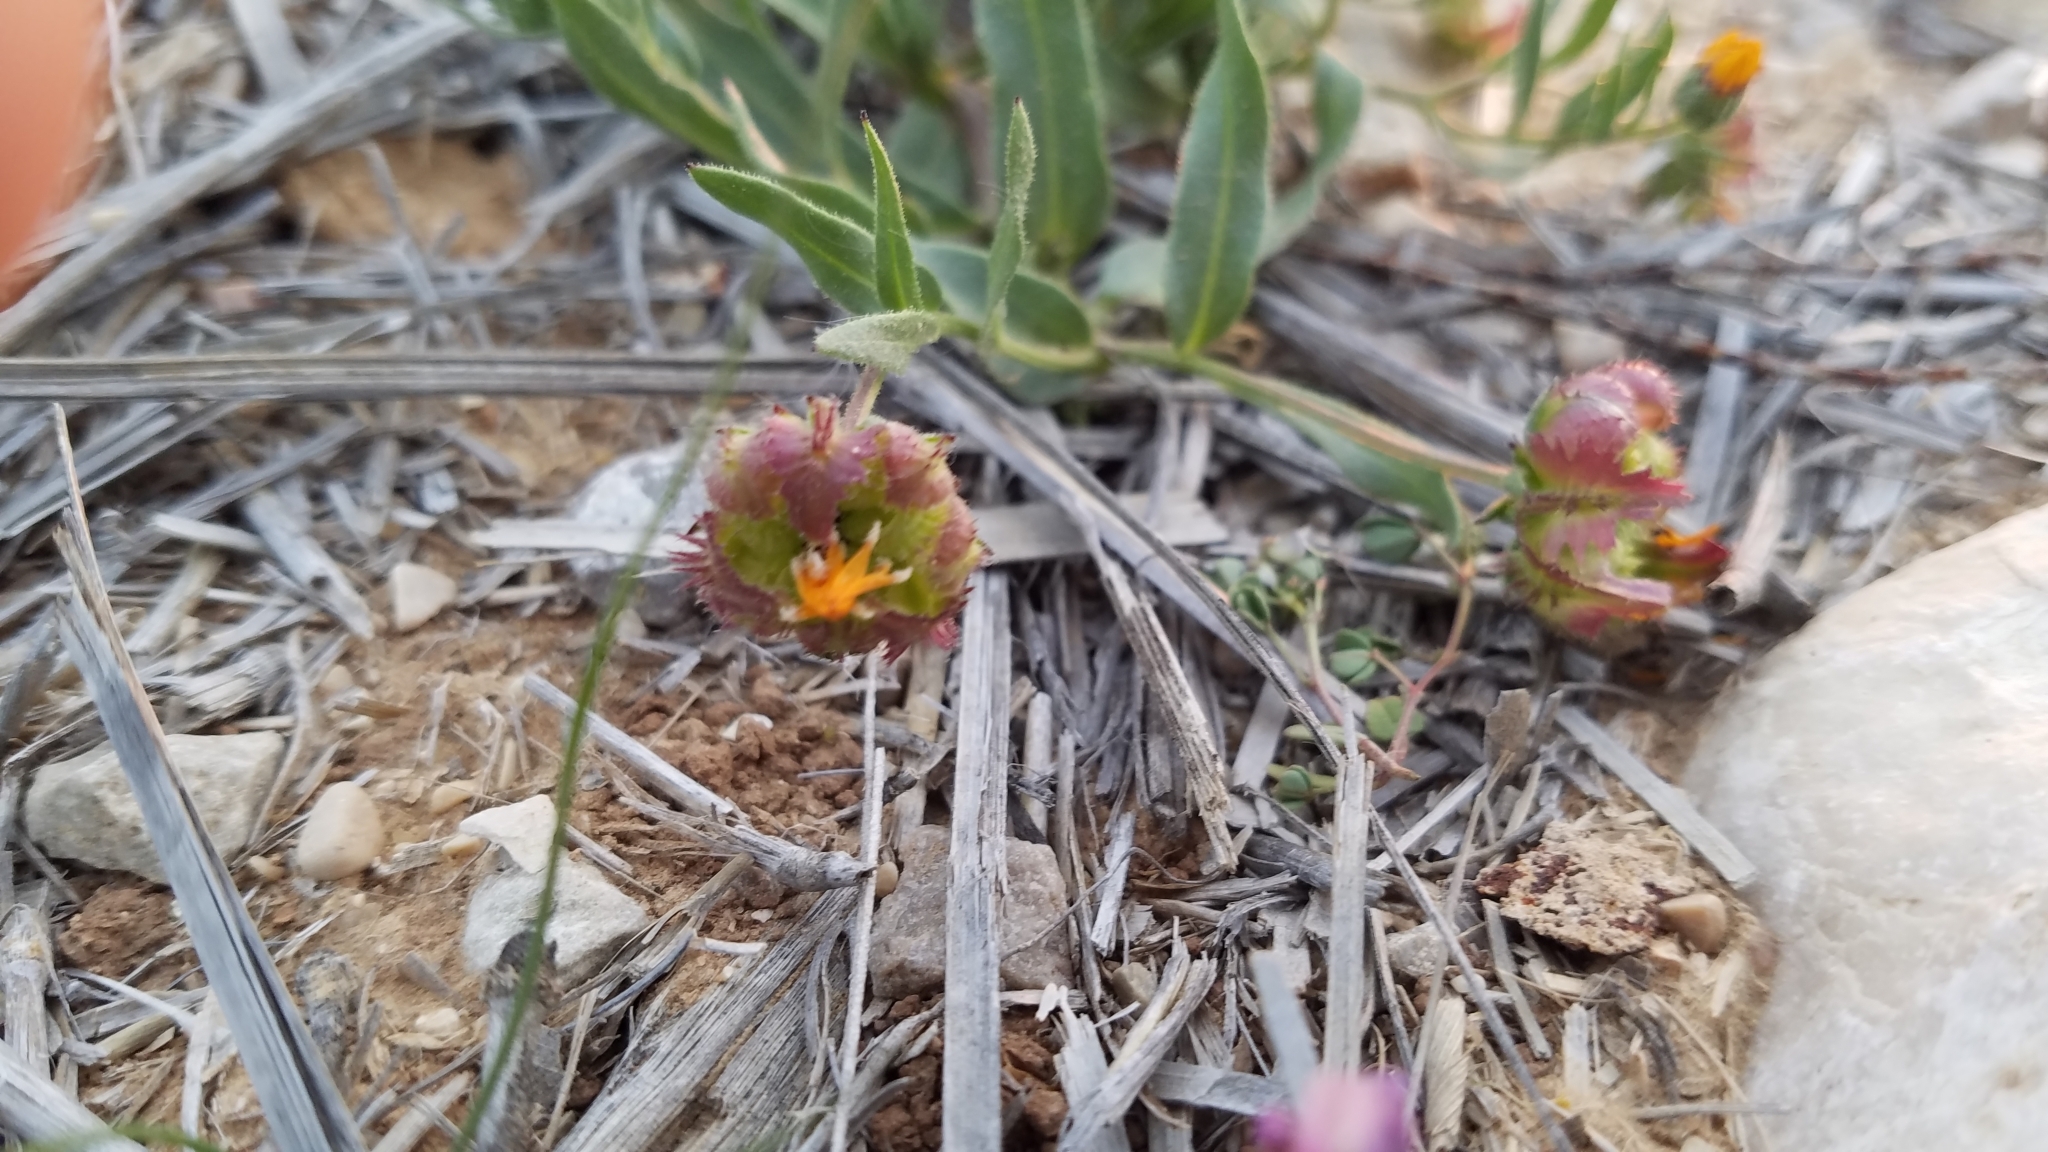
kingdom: Plantae
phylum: Tracheophyta
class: Magnoliopsida
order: Asterales
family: Asteraceae
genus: Calendula
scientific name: Calendula arvensis
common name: Field marigold
